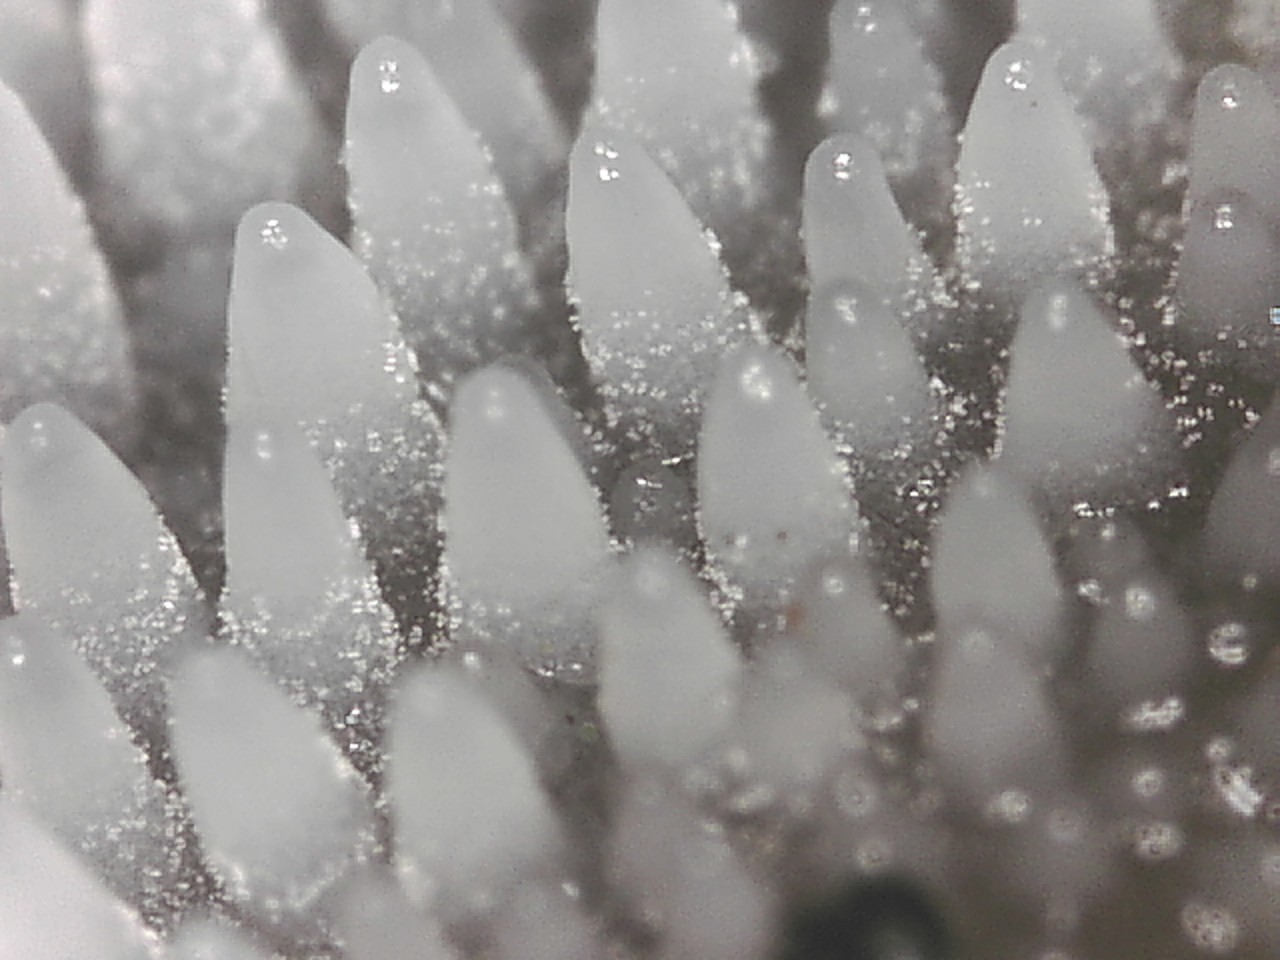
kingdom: Fungi
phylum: Basidiomycota
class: Agaricomycetes
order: Auriculariales
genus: Pseudohydnum
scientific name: Pseudohydnum gelatinosum
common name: Jelly tongue
